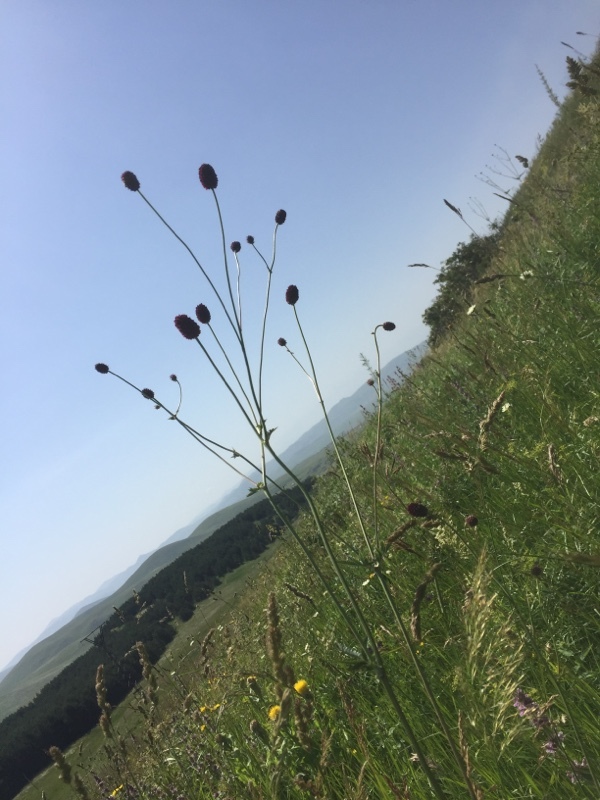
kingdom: Plantae
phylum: Tracheophyta
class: Magnoliopsida
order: Rosales
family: Rosaceae
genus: Sanguisorba
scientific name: Sanguisorba officinalis
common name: Great burnet
